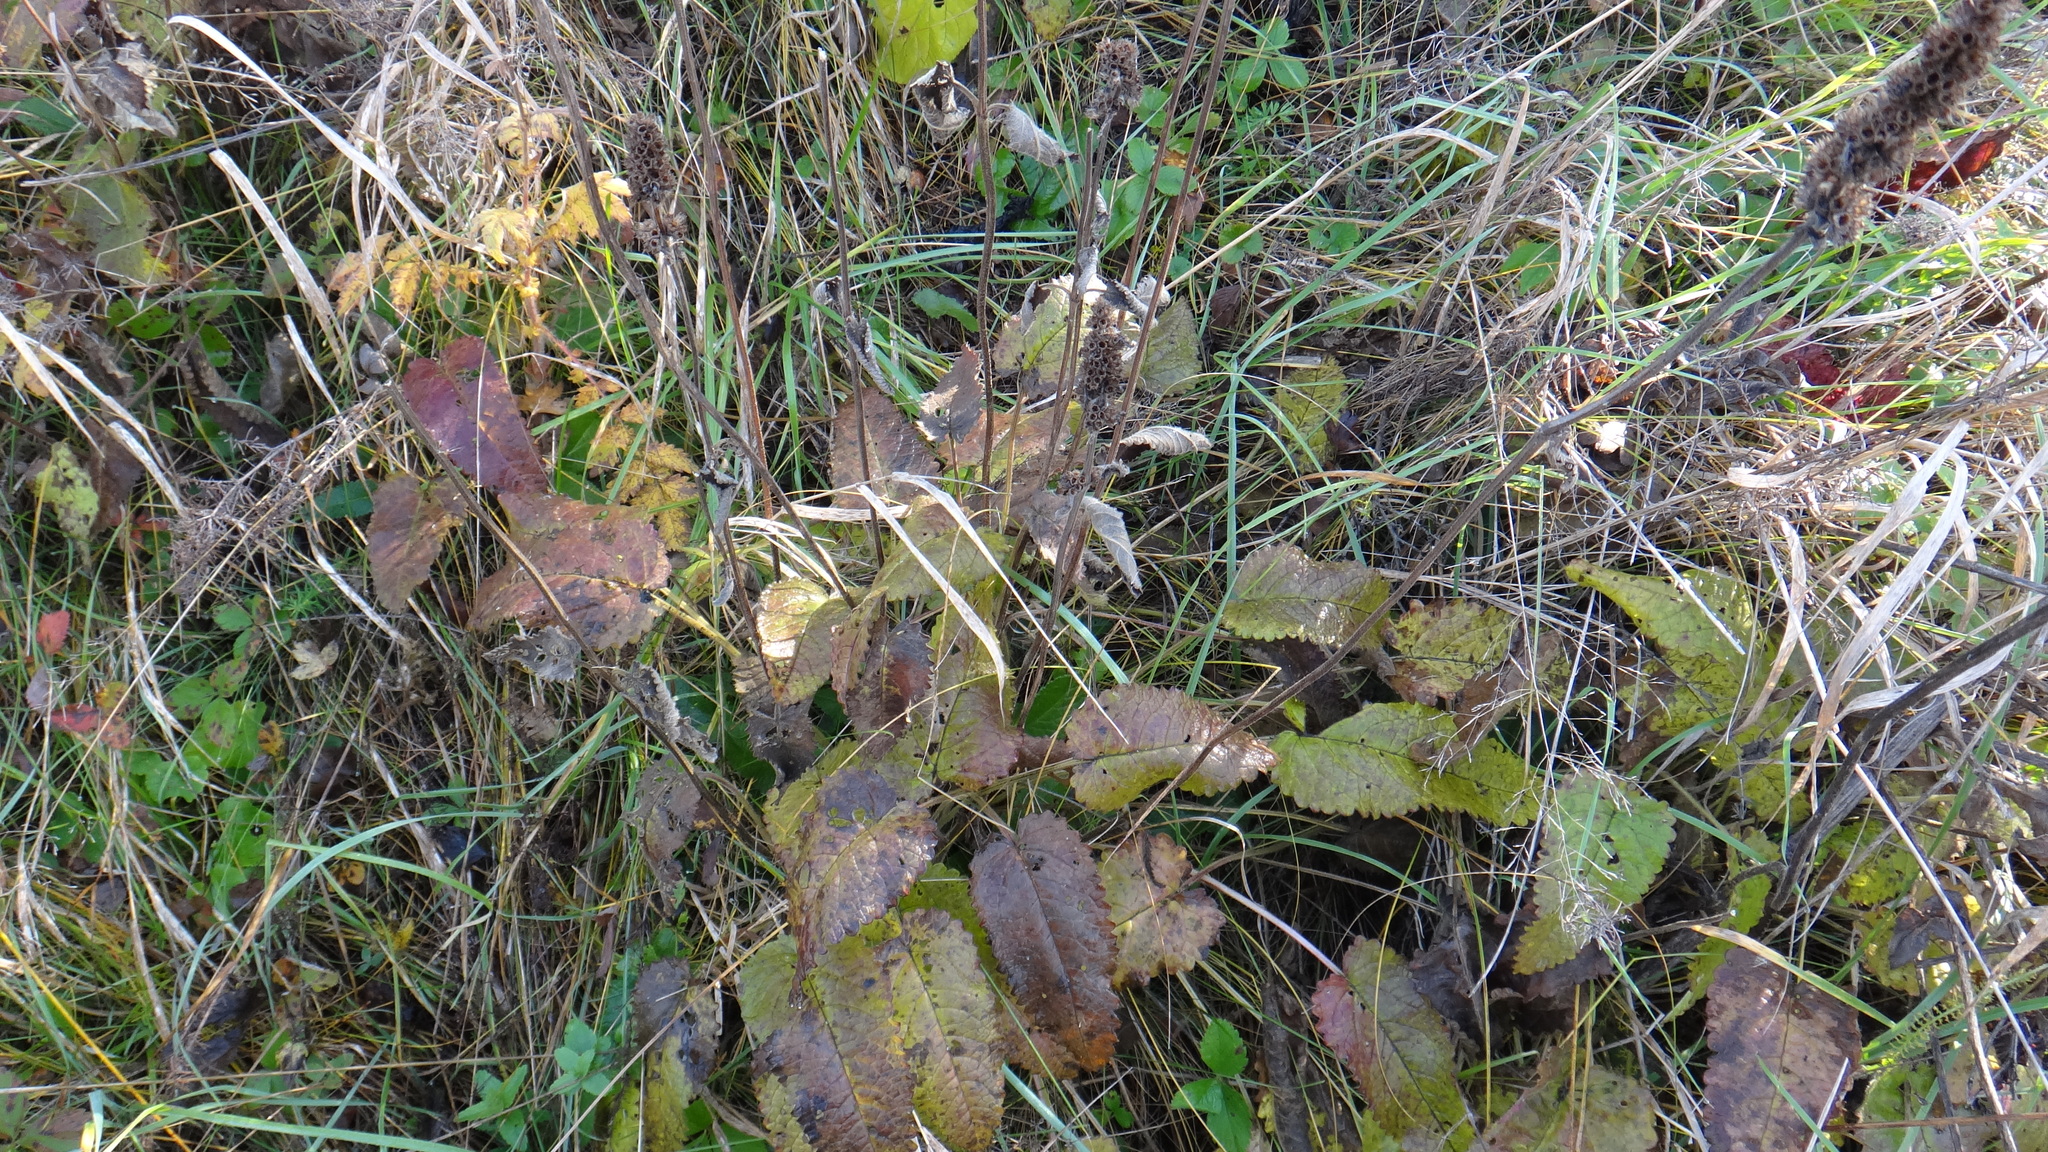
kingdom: Plantae
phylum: Tracheophyta
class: Magnoliopsida
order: Lamiales
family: Lamiaceae
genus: Betonica
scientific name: Betonica officinalis
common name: Bishop's-wort
